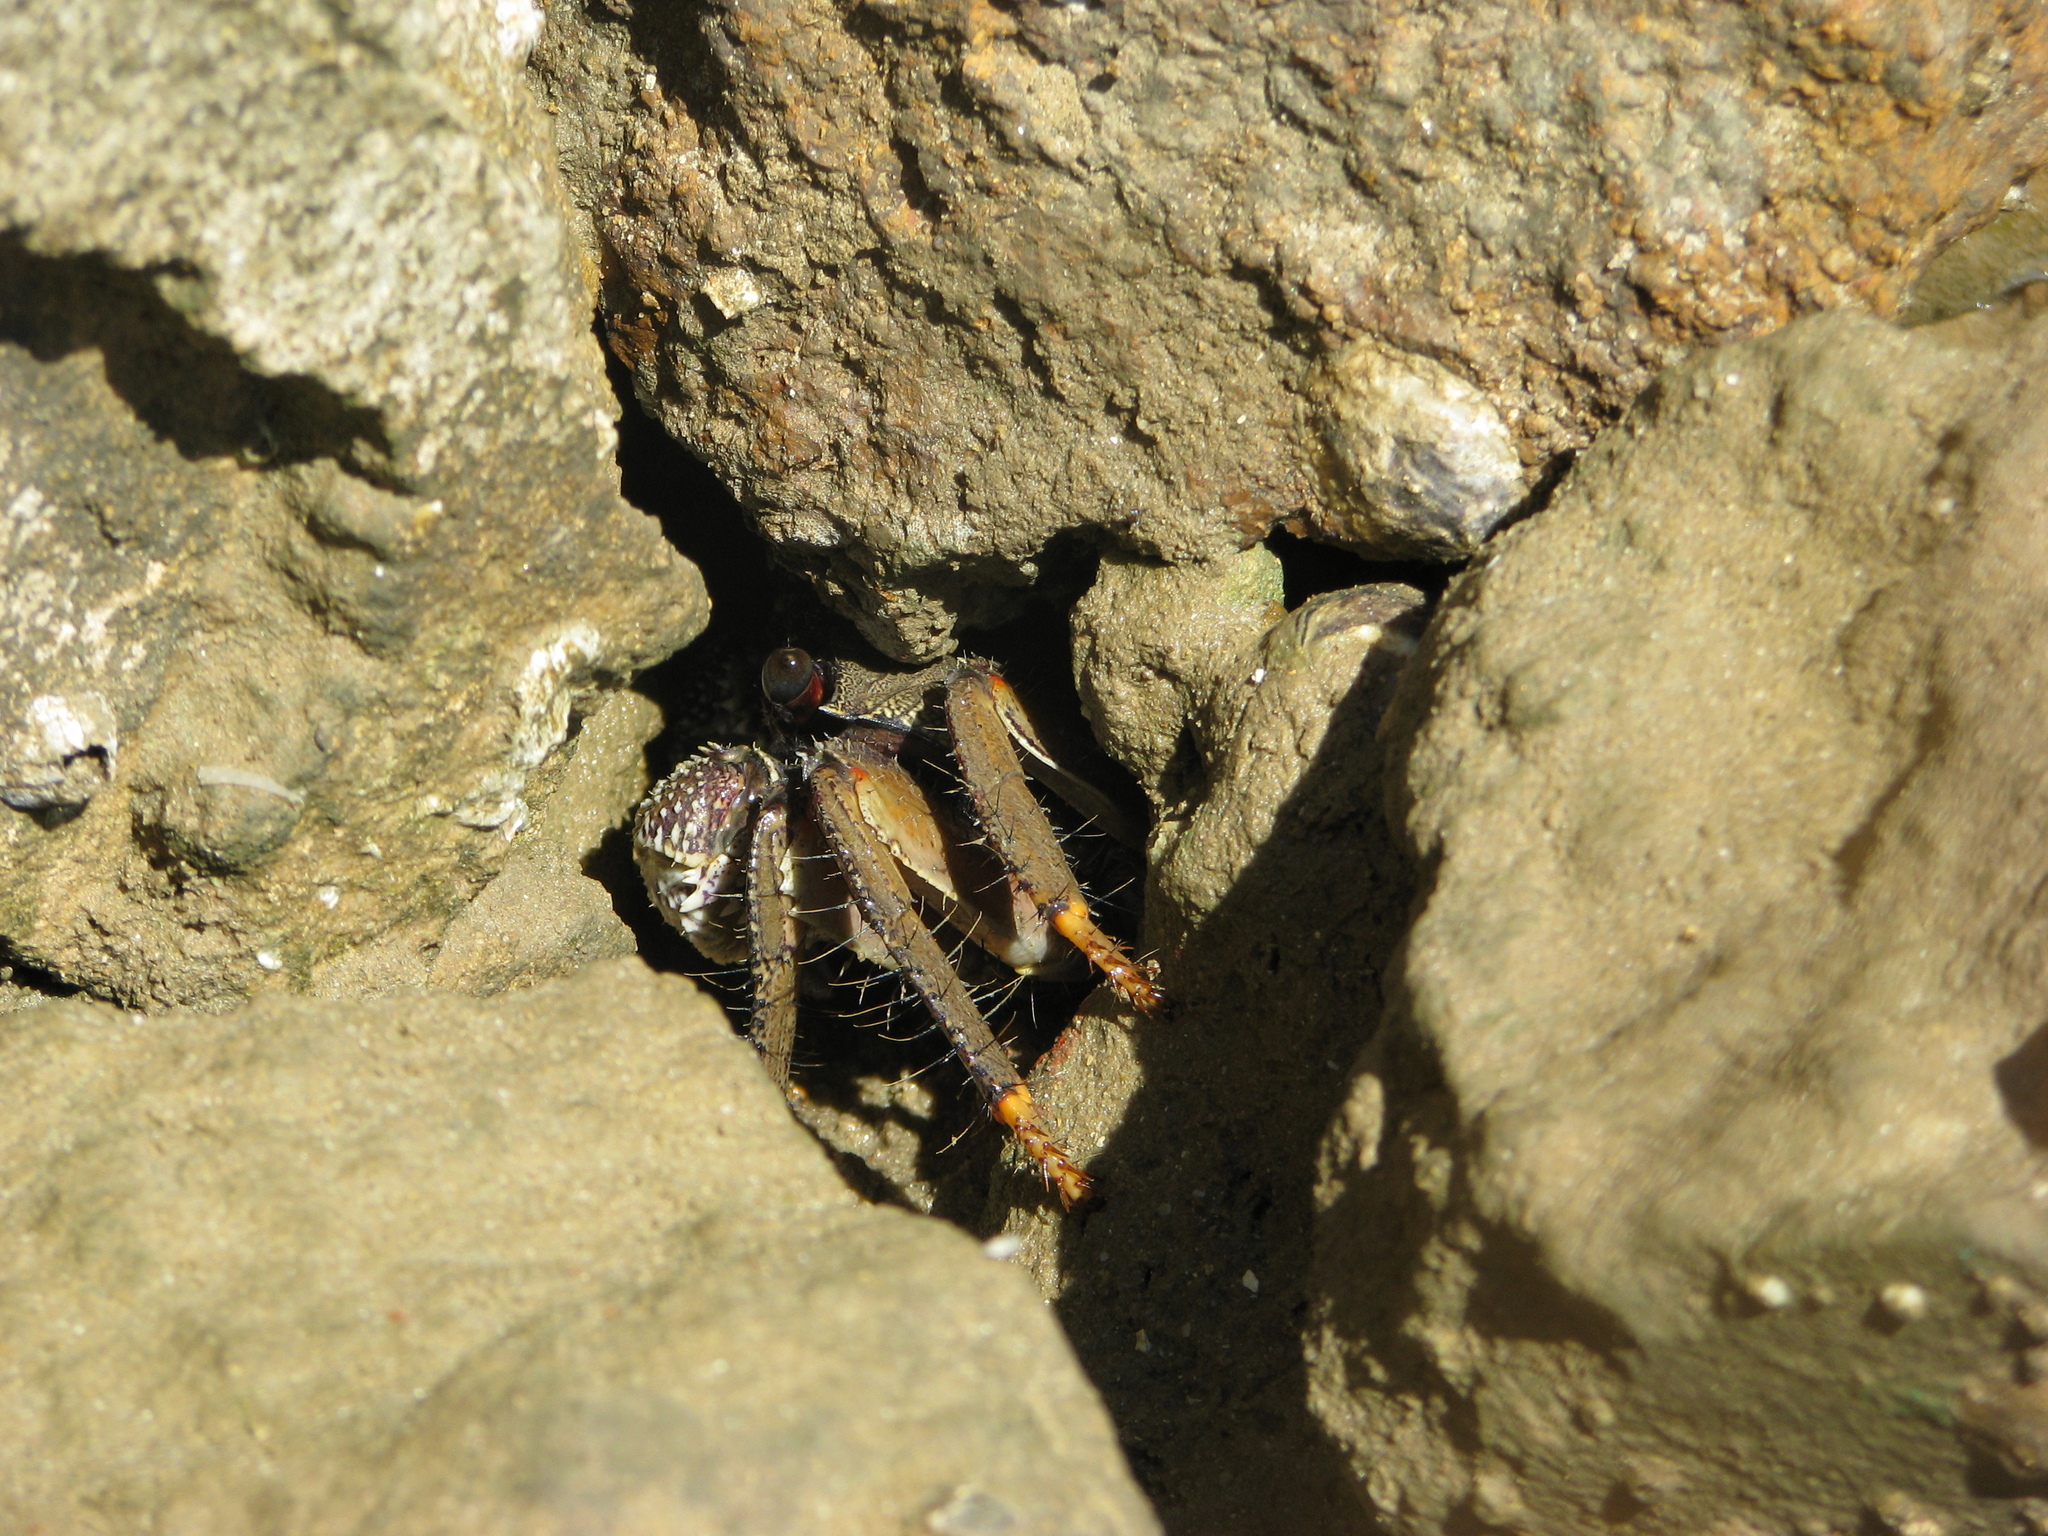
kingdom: Animalia
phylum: Arthropoda
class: Malacostraca
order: Decapoda
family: Grapsidae
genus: Goniopsis
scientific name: Goniopsis pelii
